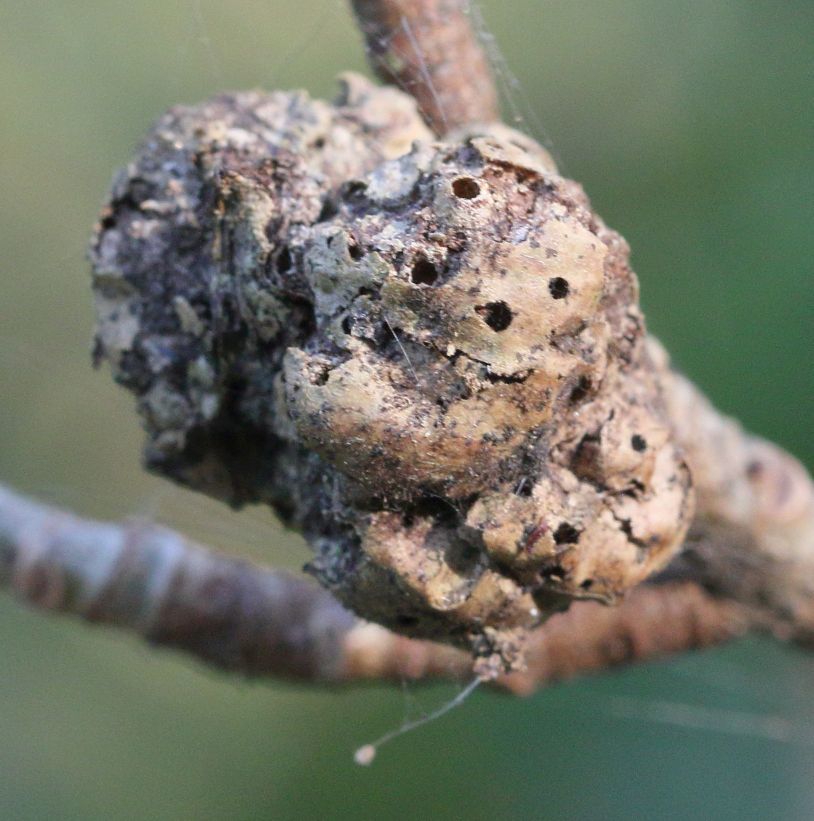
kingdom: Plantae
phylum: Tracheophyta
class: Magnoliopsida
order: Rosales
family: Moraceae
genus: Ficus
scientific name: Ficus thonningii
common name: Fig
